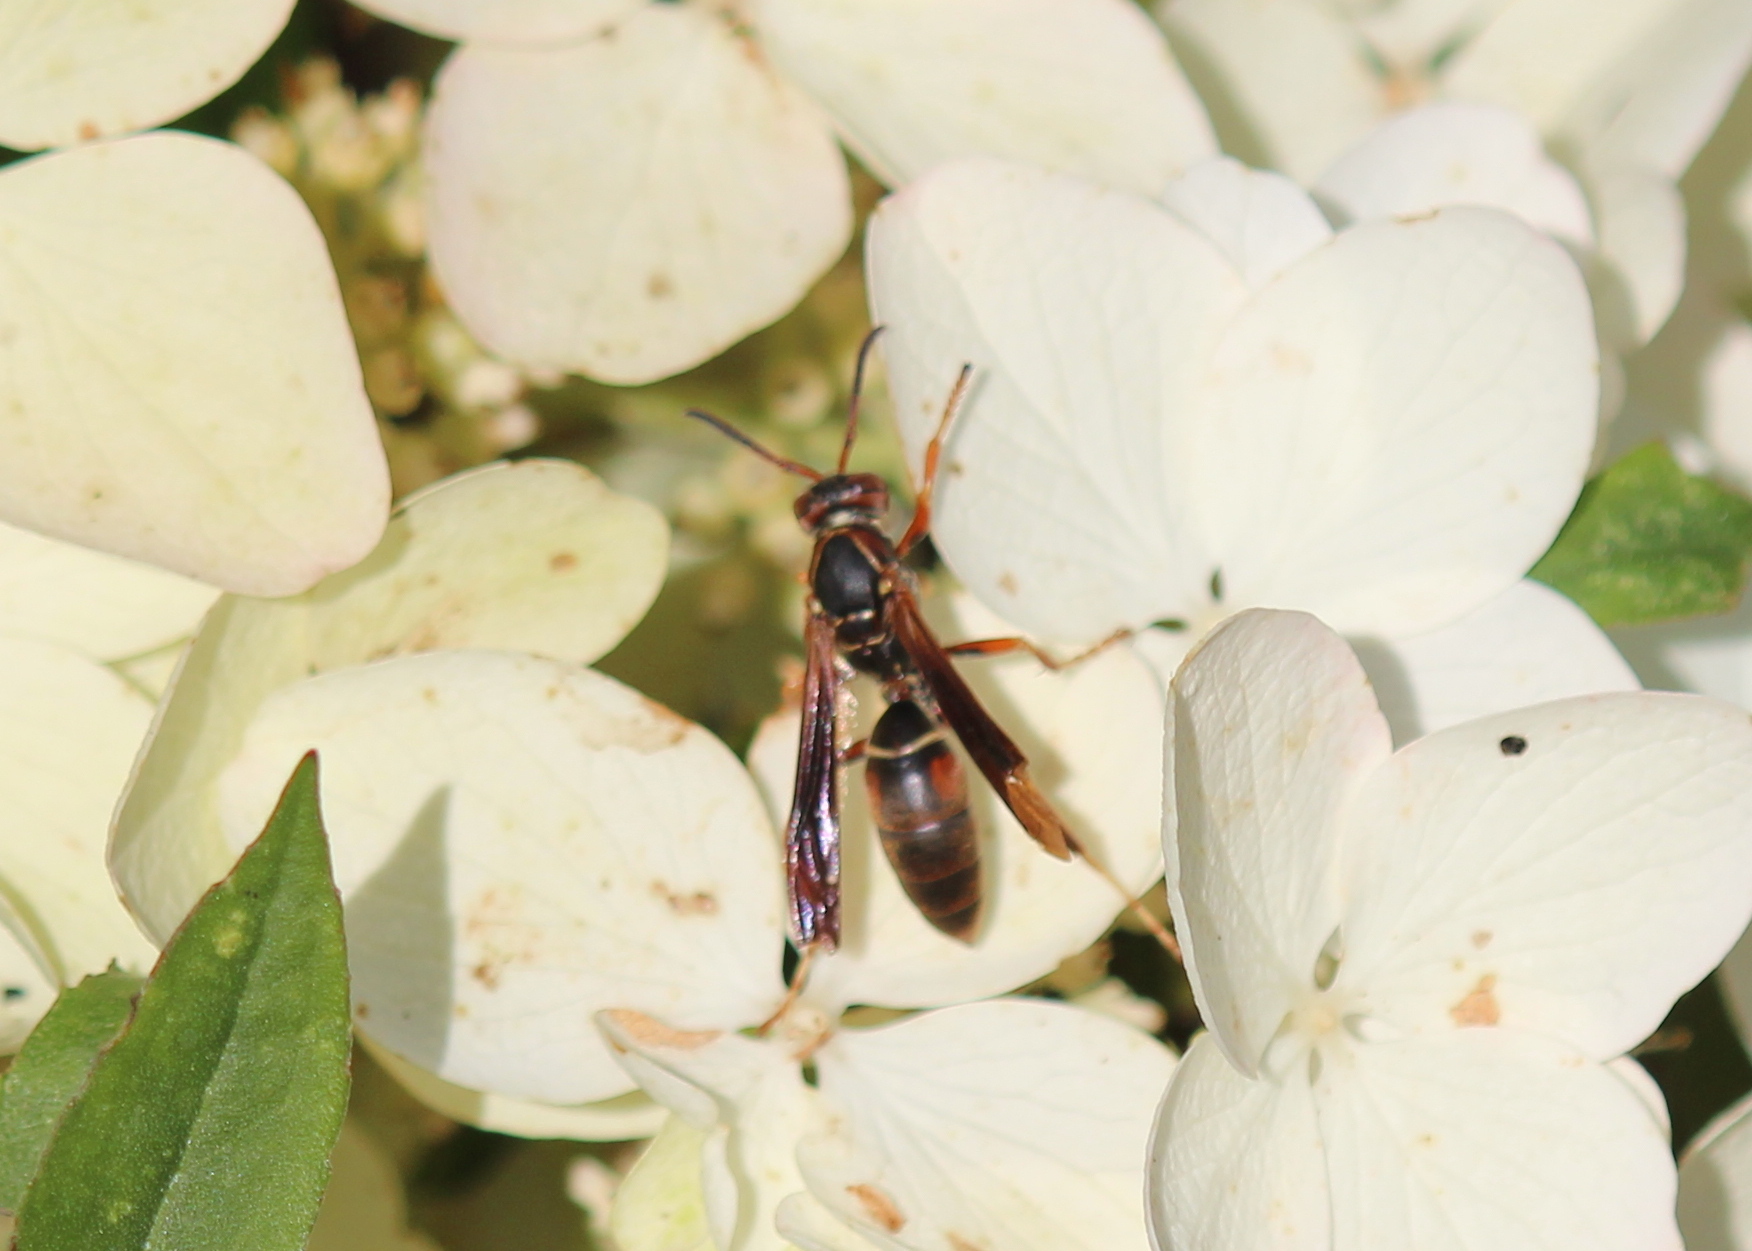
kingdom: Animalia
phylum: Arthropoda
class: Insecta
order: Hymenoptera
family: Eumenidae
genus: Polistes
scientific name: Polistes fuscatus
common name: Dark paper wasp
